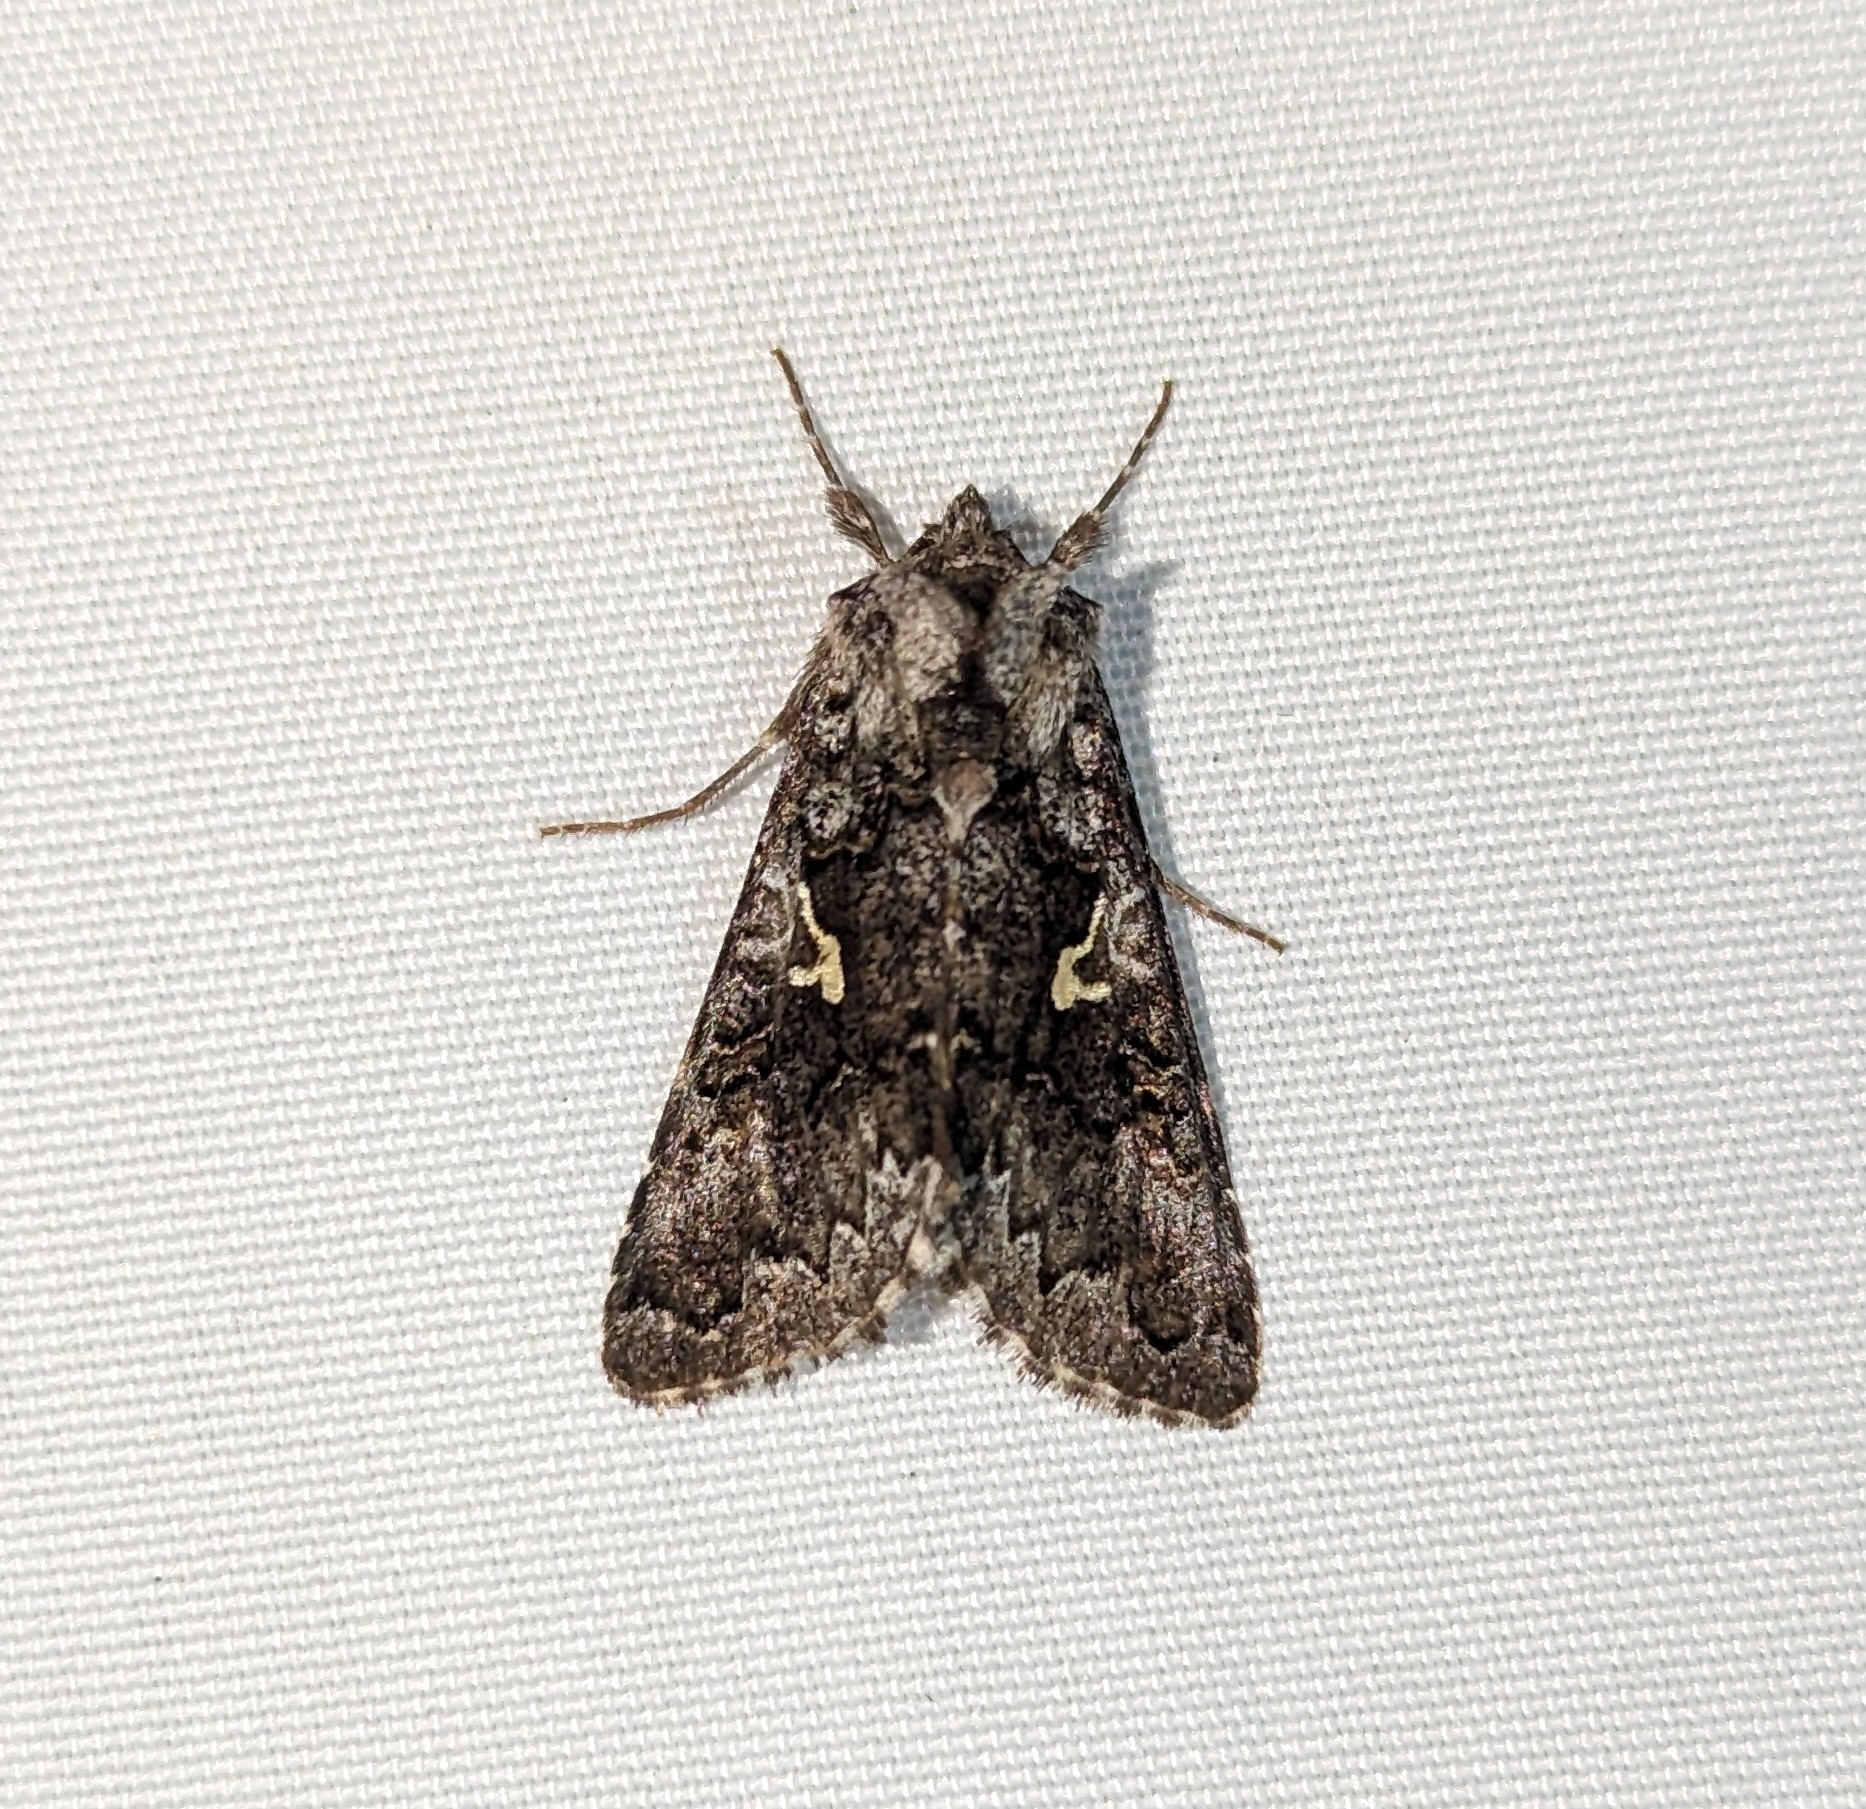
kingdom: Animalia
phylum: Arthropoda
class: Insecta
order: Lepidoptera
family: Noctuidae
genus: Syngrapha
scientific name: Syngrapha celsa
